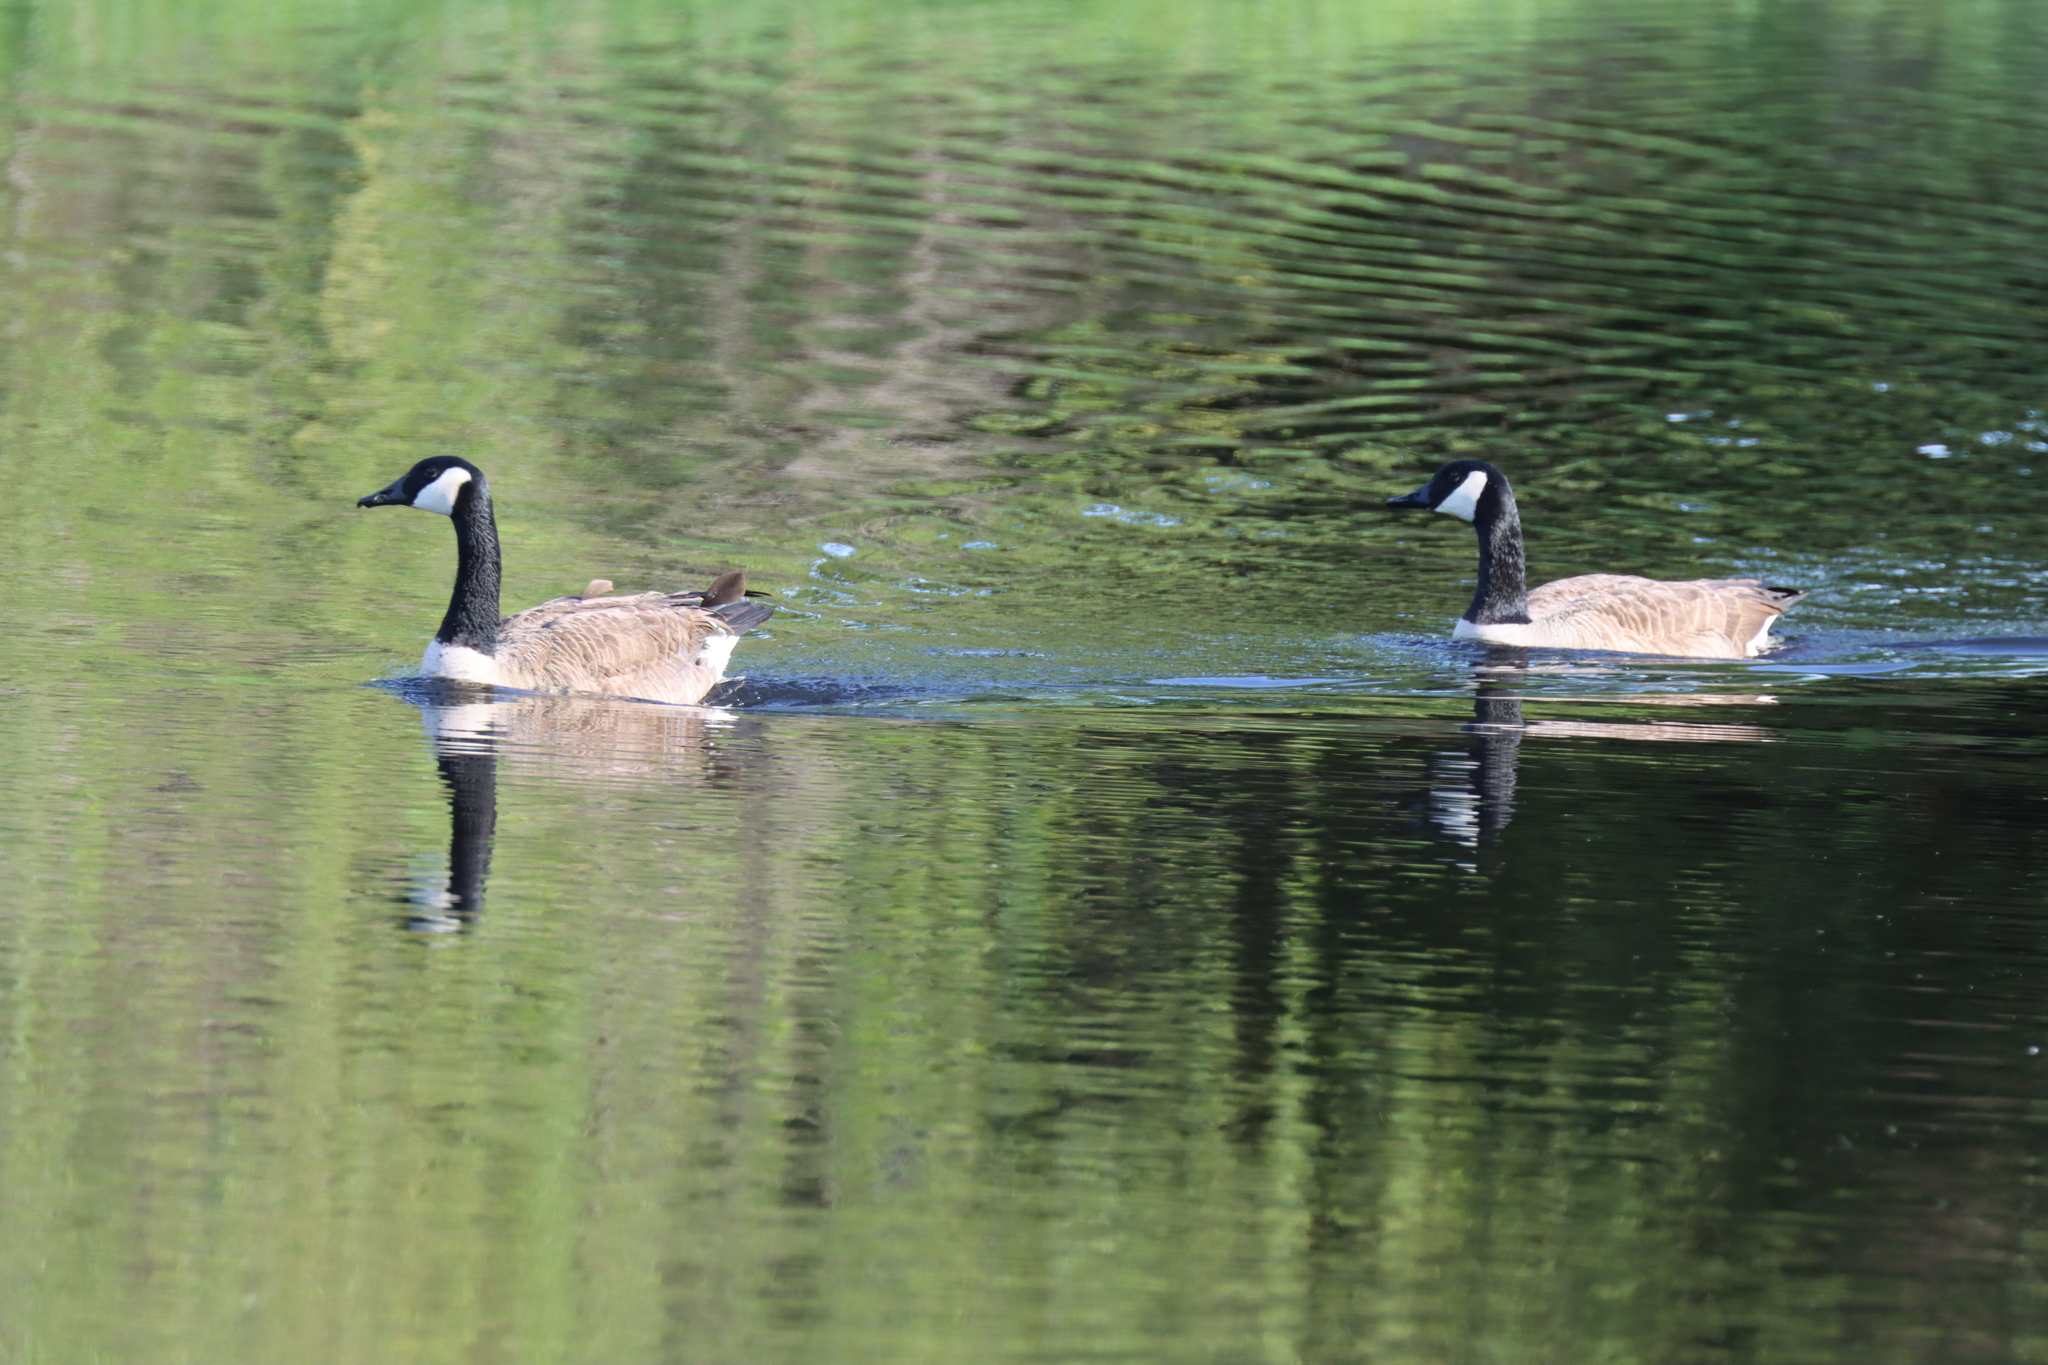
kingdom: Animalia
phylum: Chordata
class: Aves
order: Anseriformes
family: Anatidae
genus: Branta
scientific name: Branta canadensis
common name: Canada goose
